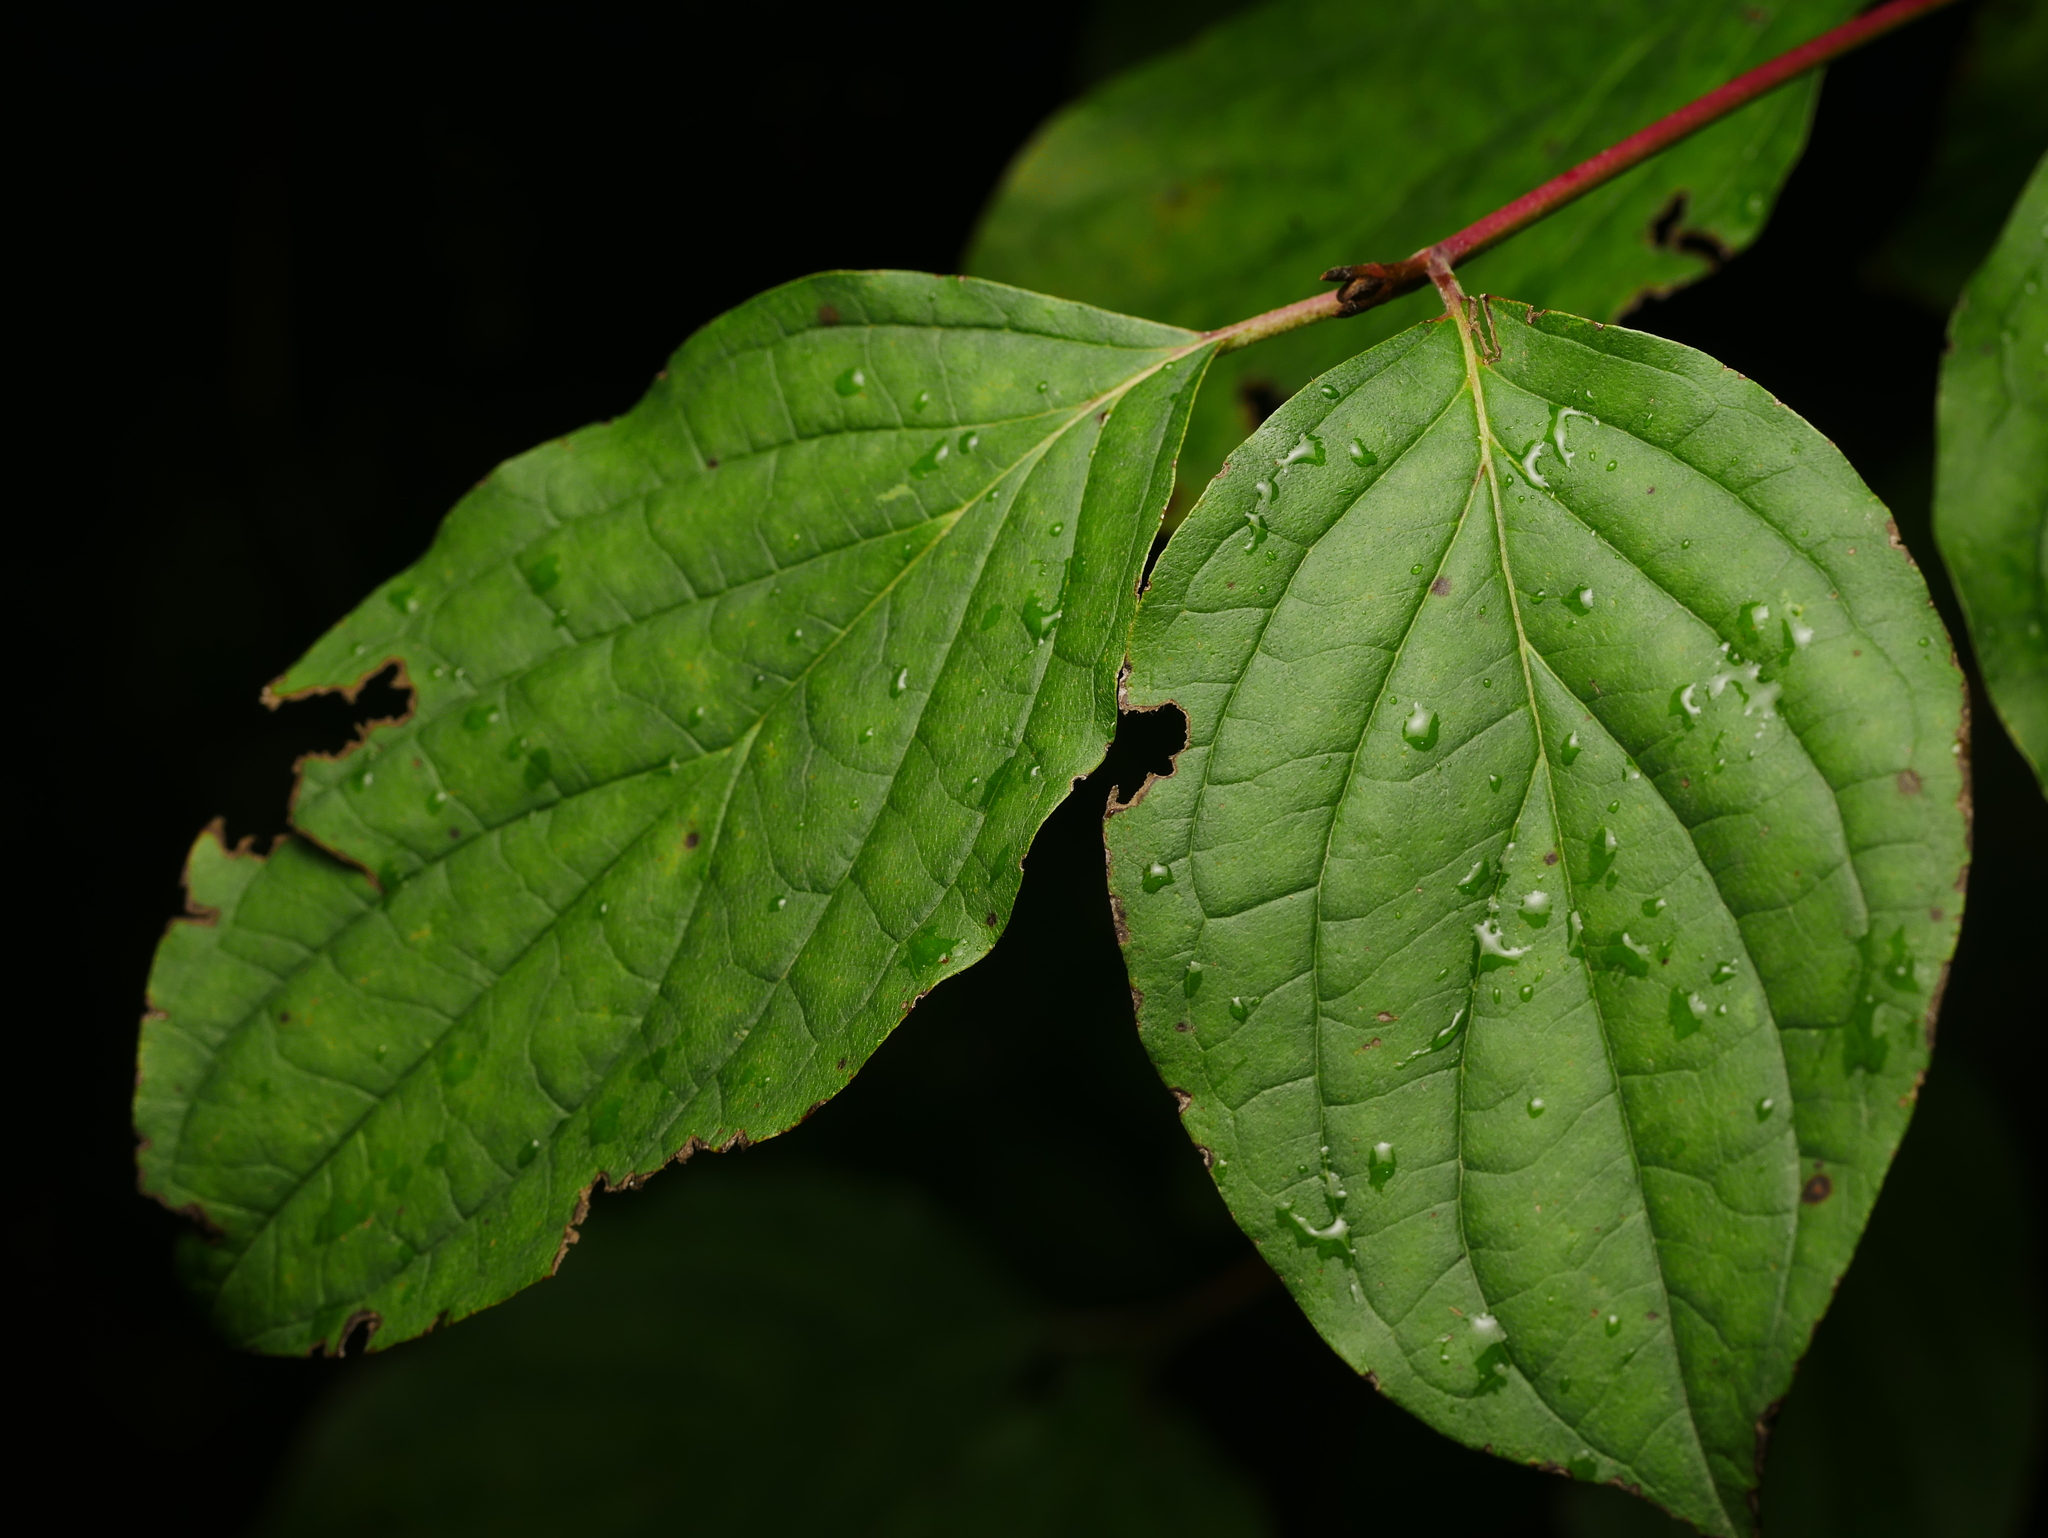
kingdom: Plantae
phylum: Tracheophyta
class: Magnoliopsida
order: Cornales
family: Cornaceae
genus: Cornus
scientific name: Cornus sanguinea
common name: Dogwood
